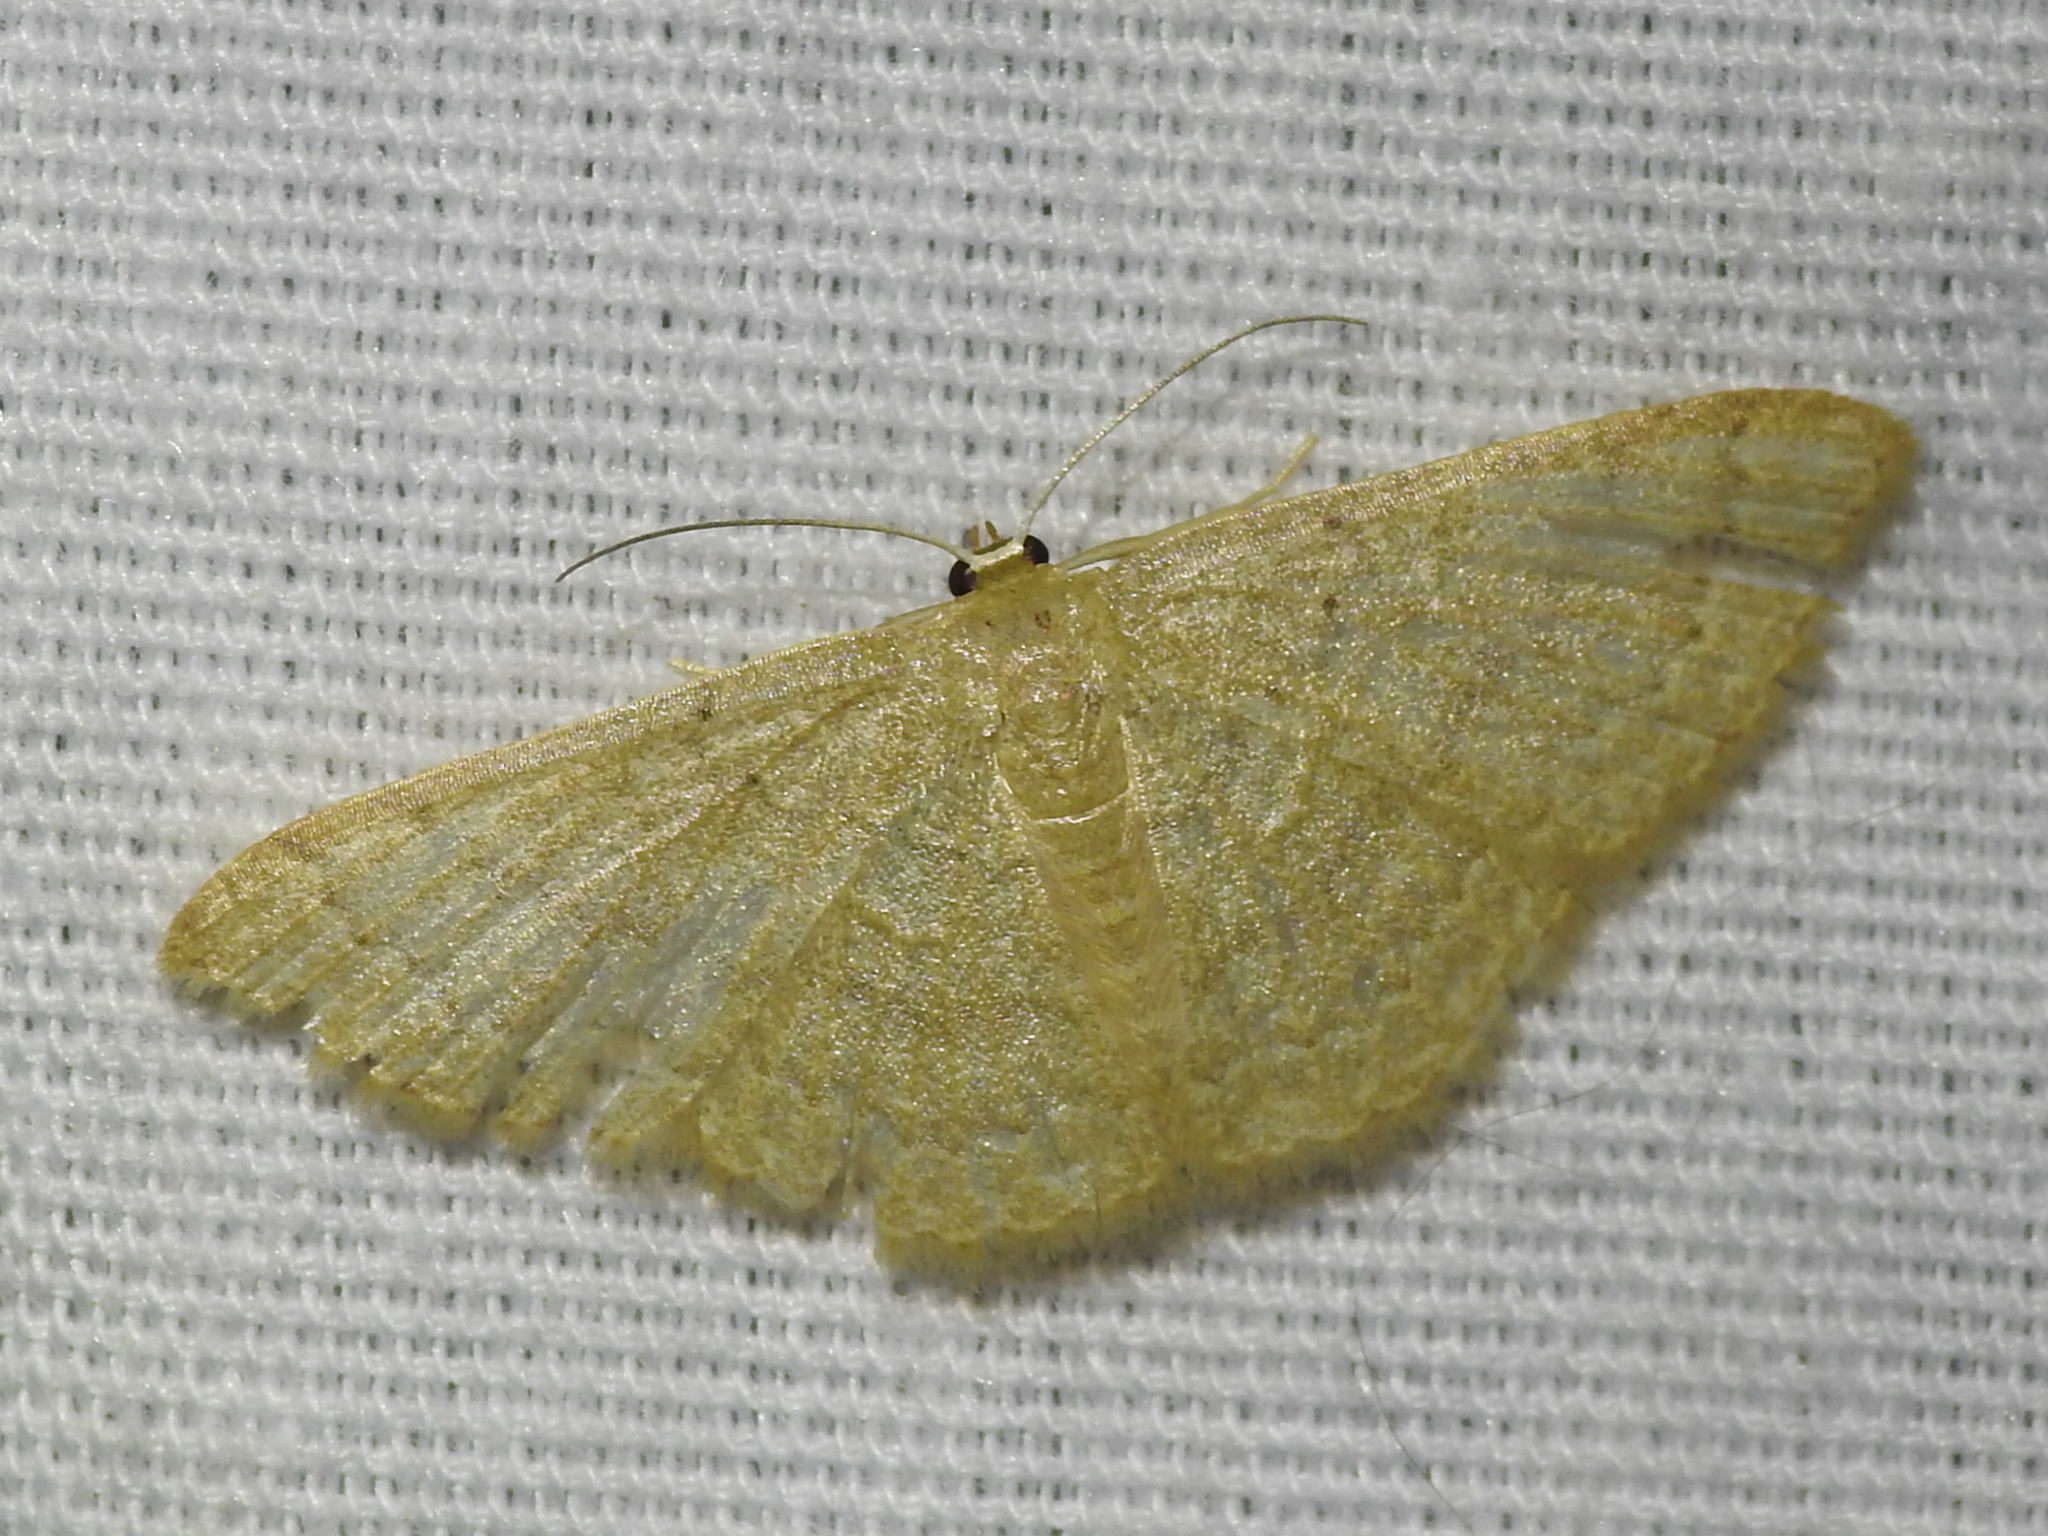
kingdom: Animalia
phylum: Arthropoda
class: Insecta
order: Lepidoptera
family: Geometridae
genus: Pleuroprucha
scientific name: Pleuroprucha insulsaria
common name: Common tan wave
